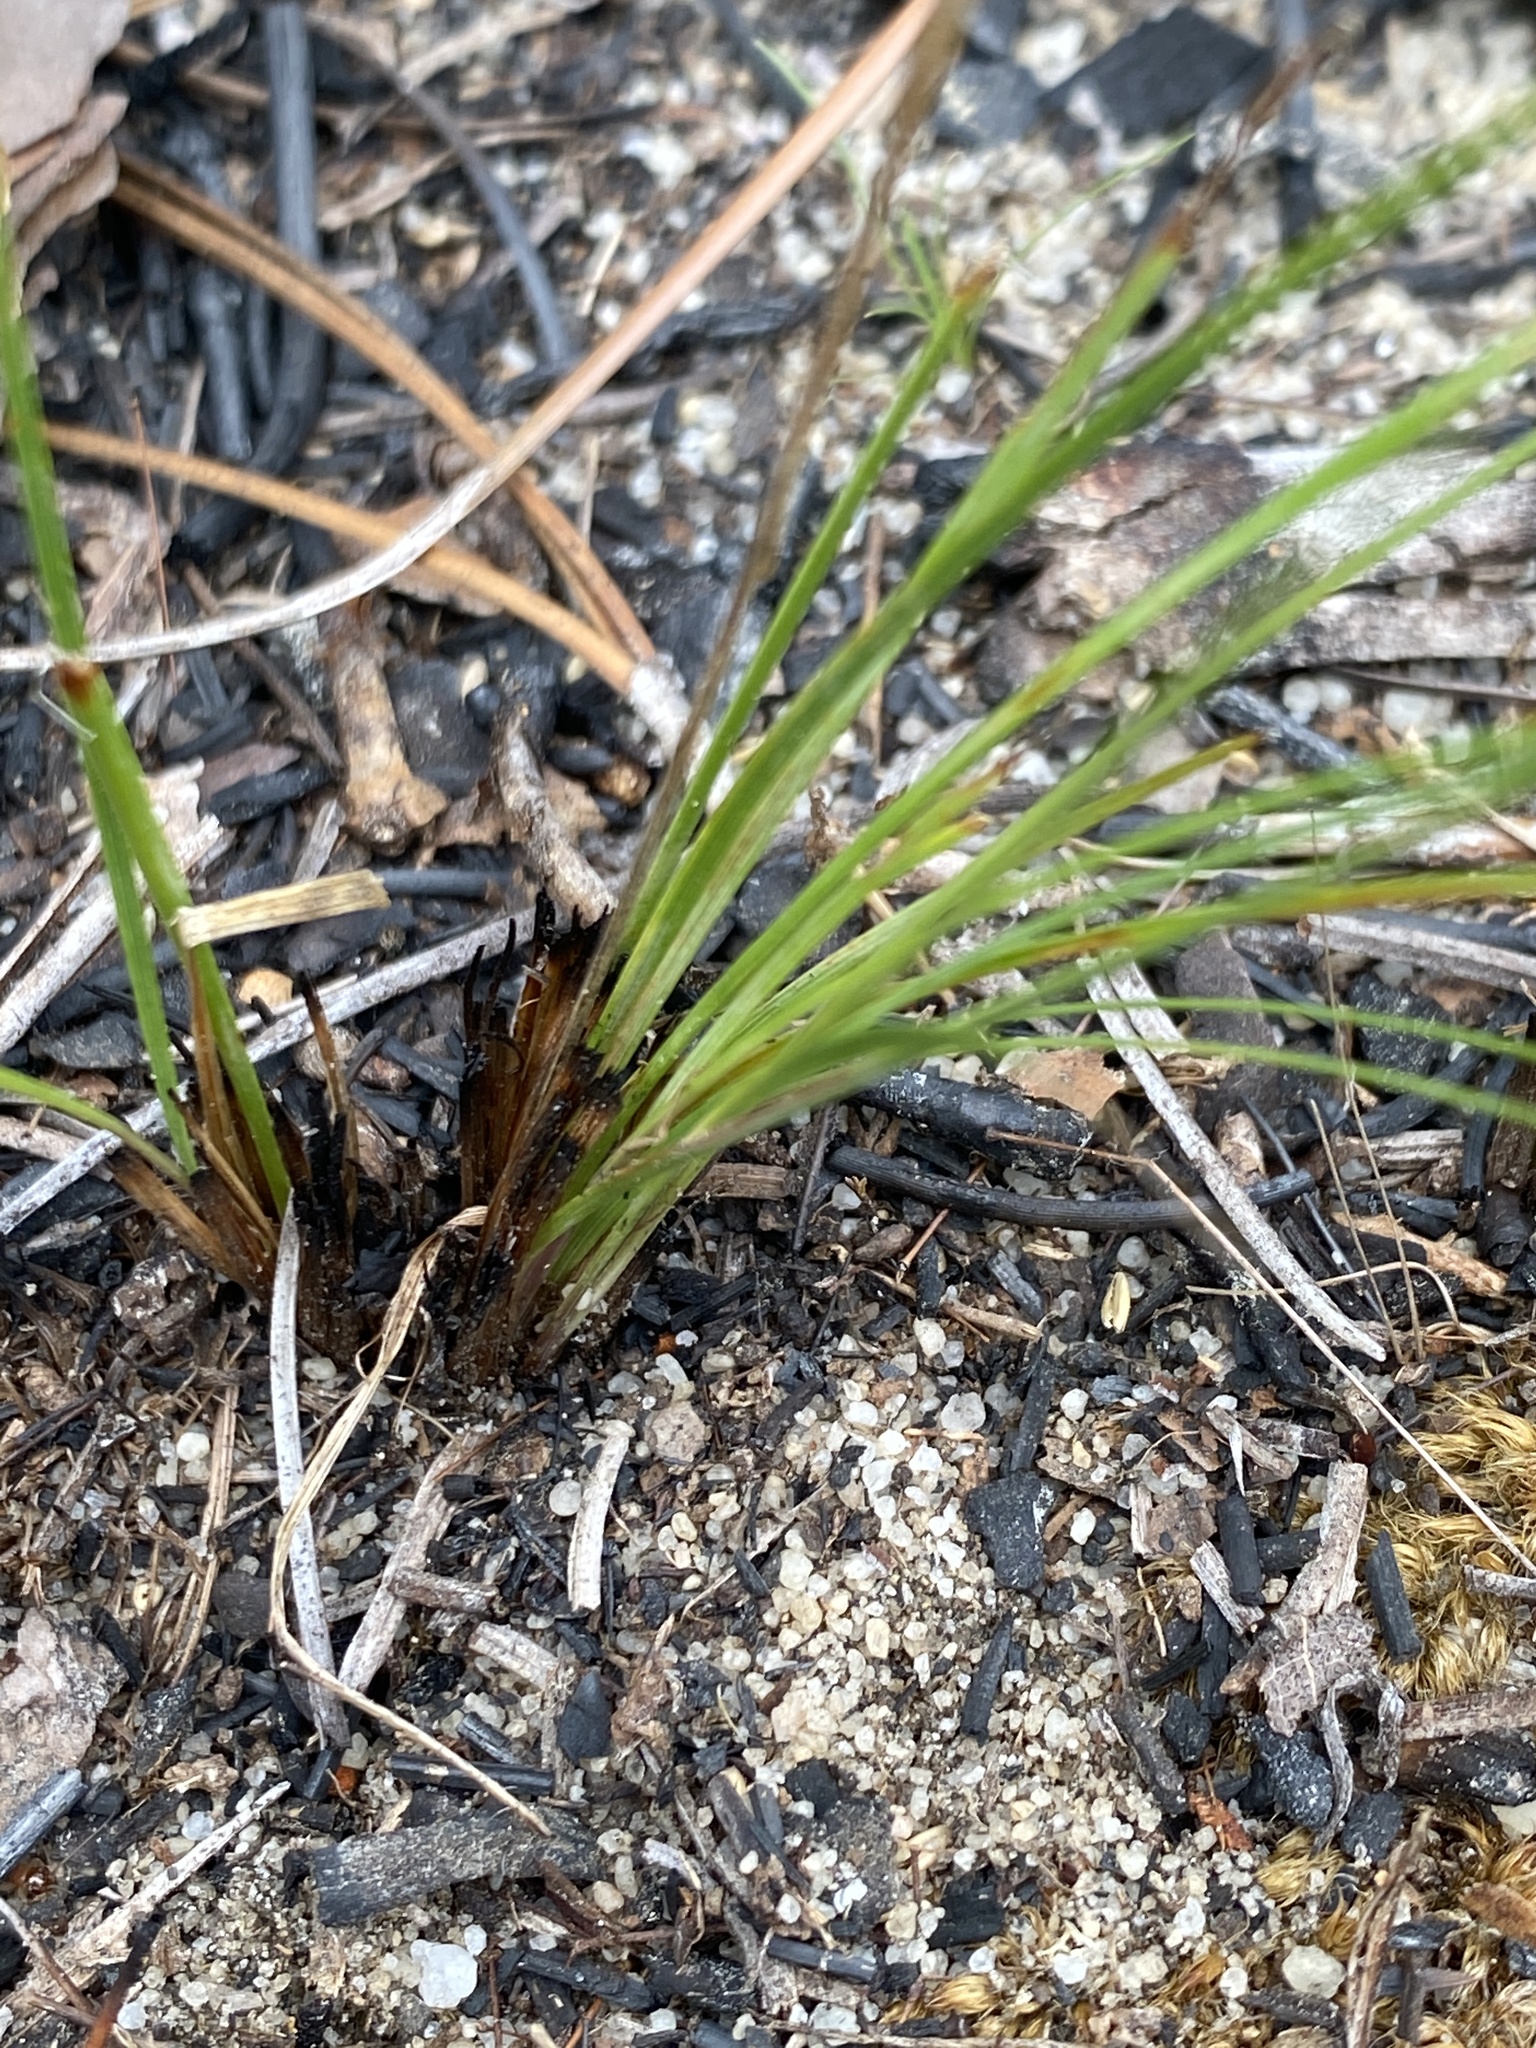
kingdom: Plantae
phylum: Tracheophyta
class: Liliopsida
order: Asparagales
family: Iridaceae
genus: Sisyrinchium
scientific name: Sisyrinchium fuscatum
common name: Coastal plain blue-eyed-grass
